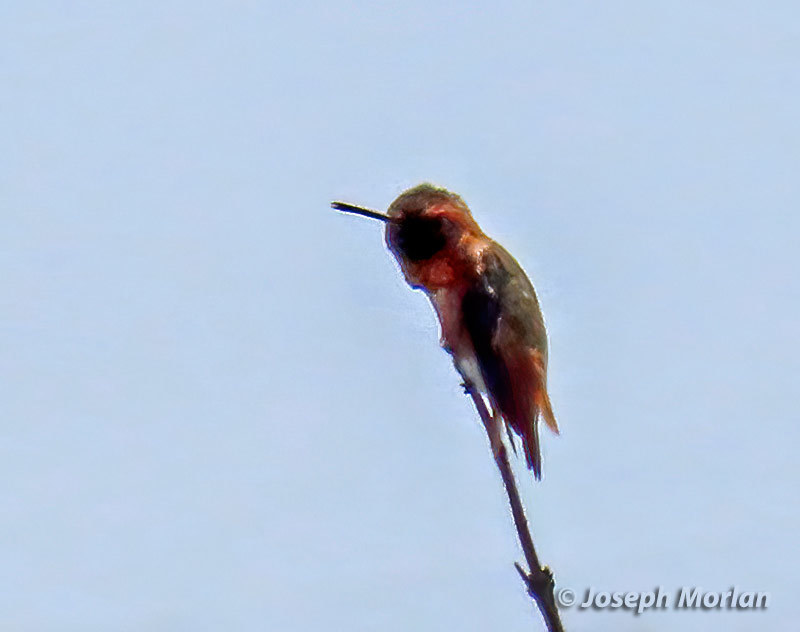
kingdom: Animalia
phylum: Chordata
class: Aves
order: Apodiformes
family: Trochilidae
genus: Selasphorus
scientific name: Selasphorus sasin
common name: Allen's hummingbird
